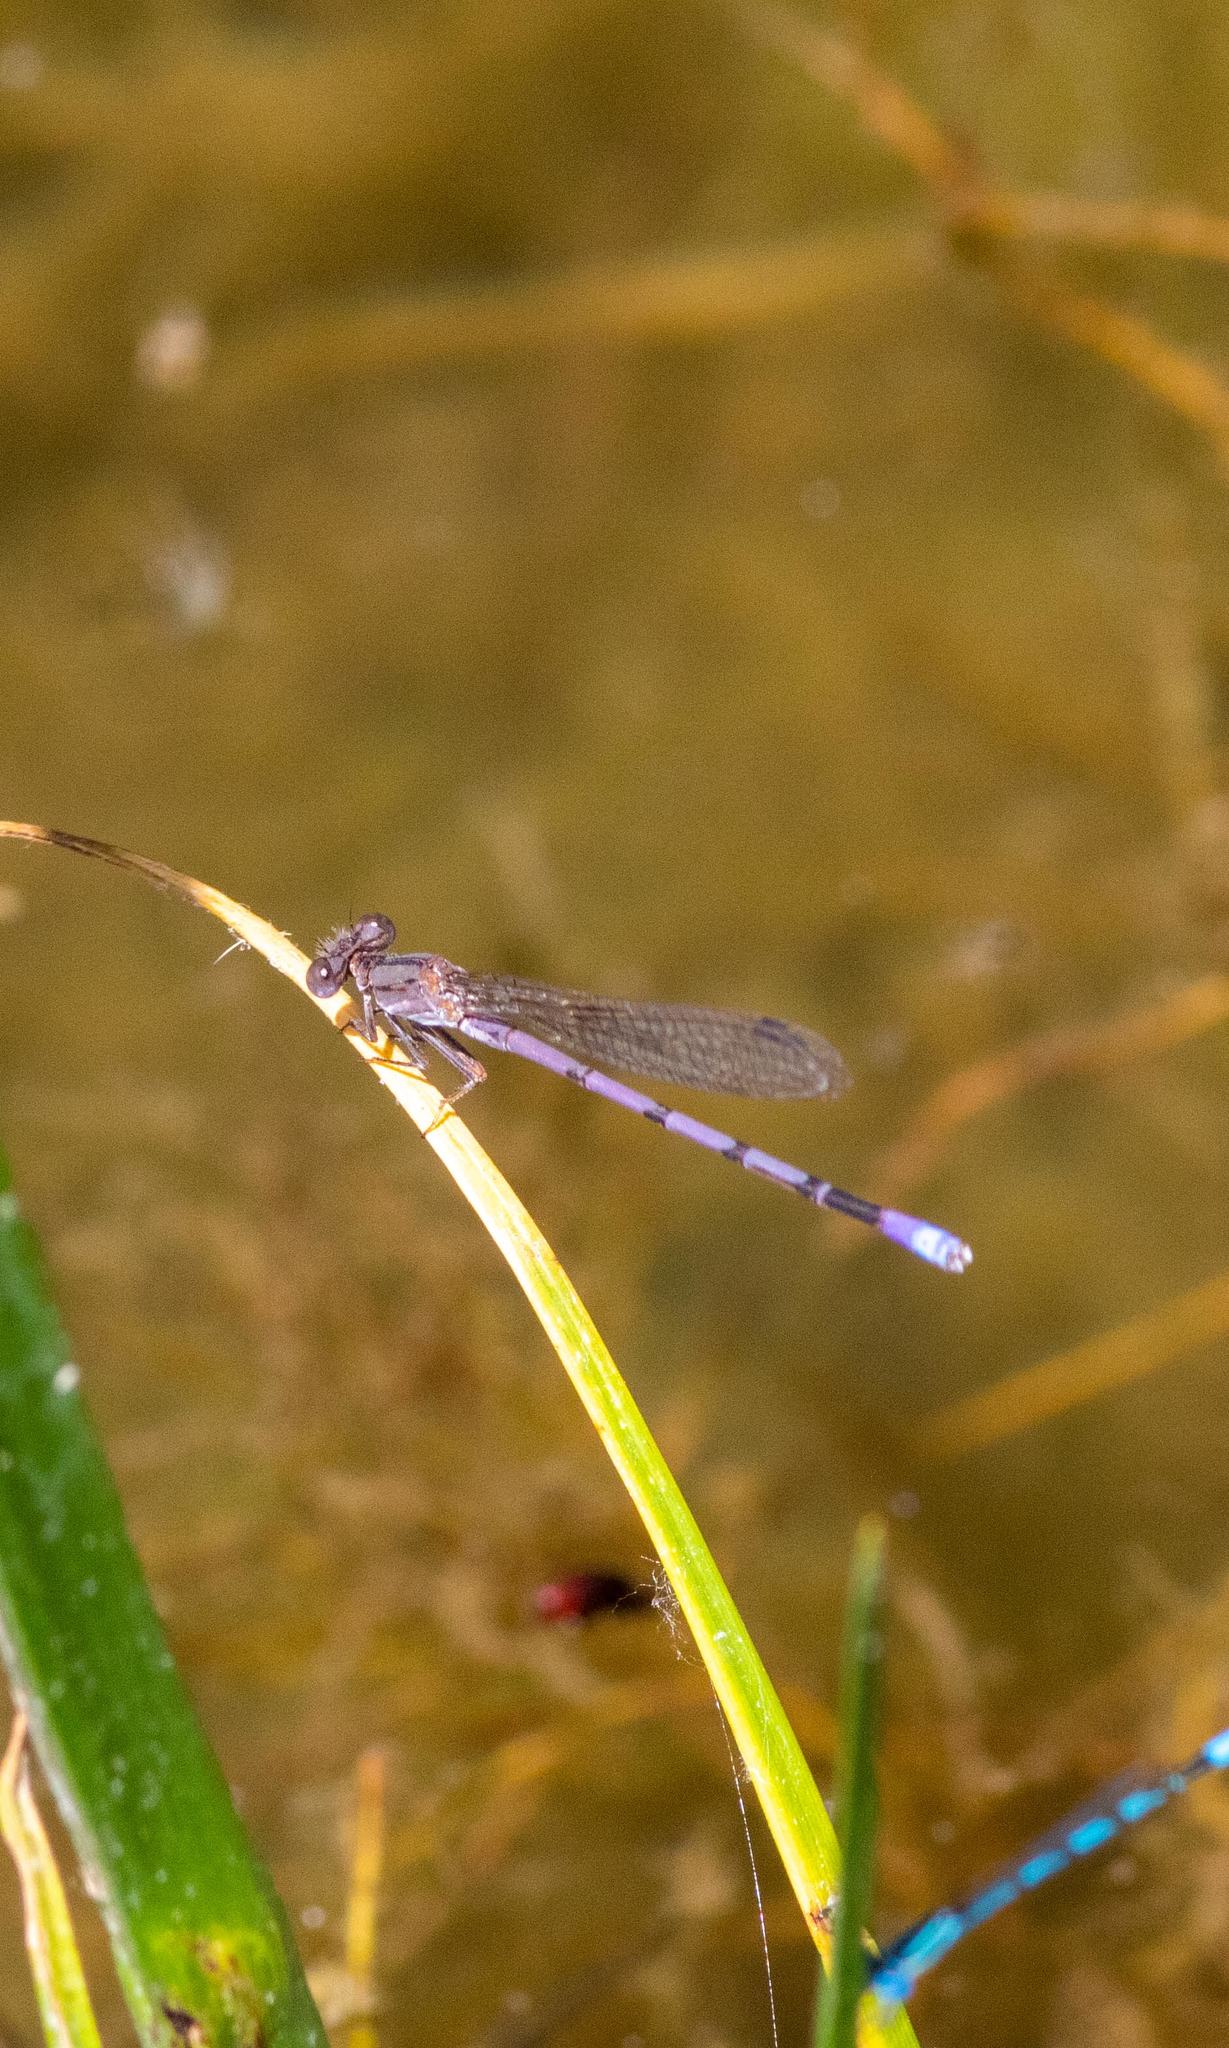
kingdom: Animalia
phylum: Arthropoda
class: Insecta
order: Odonata
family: Coenagrionidae
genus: Argia
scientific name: Argia fumipennis
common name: Variable dancer
